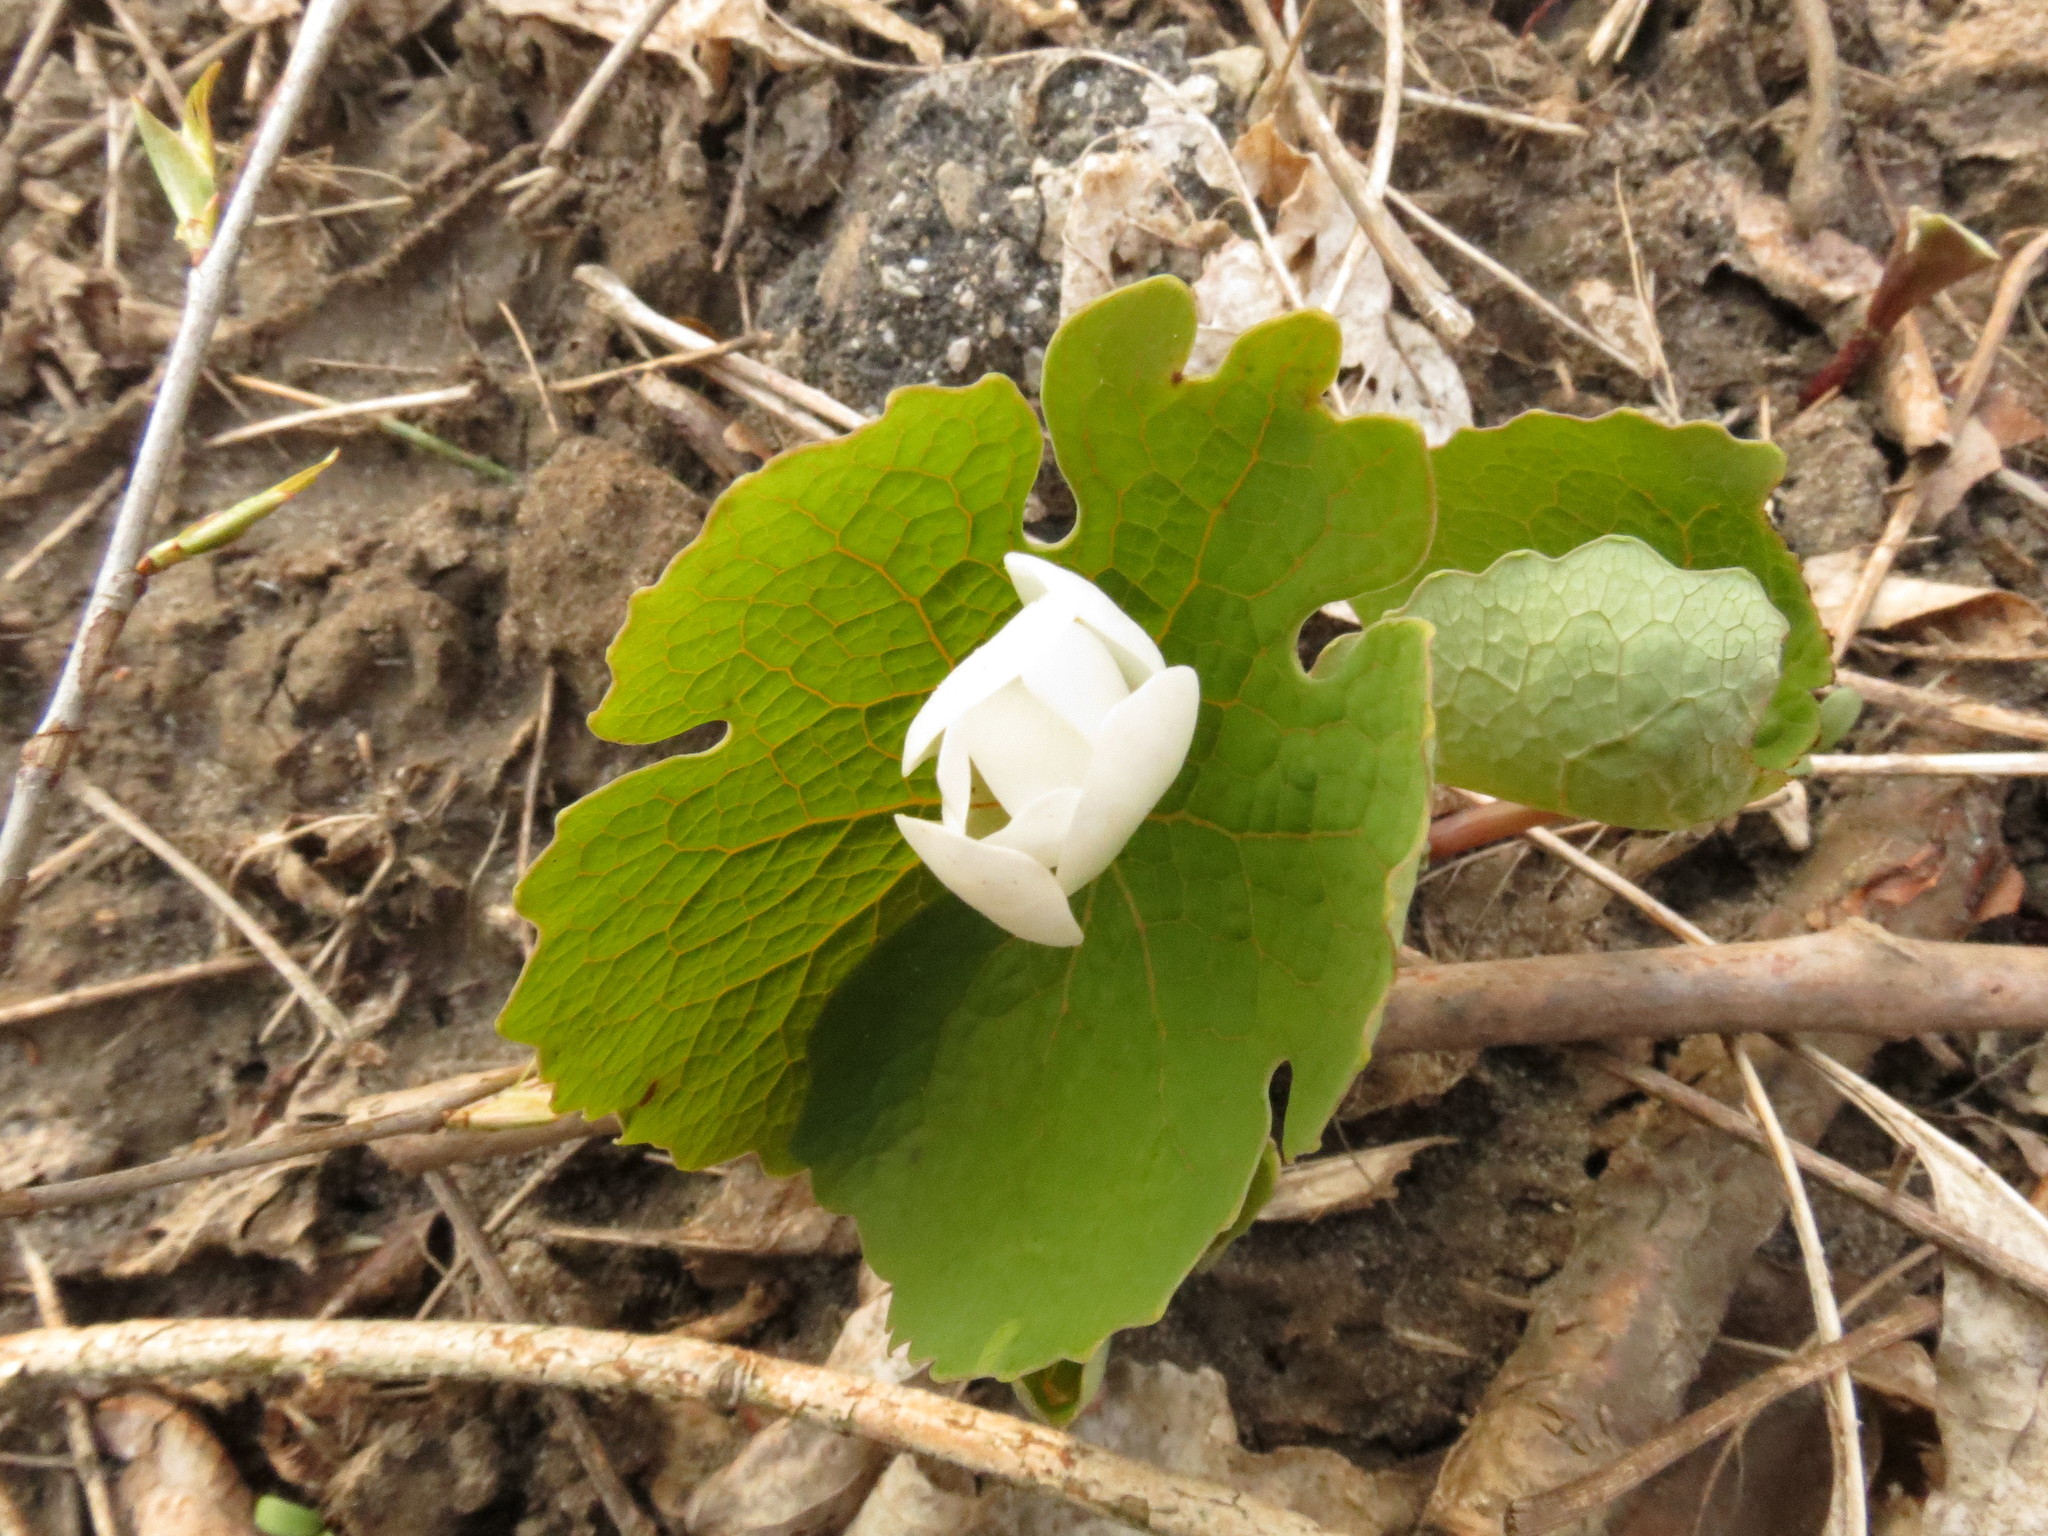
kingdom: Plantae
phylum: Tracheophyta
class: Magnoliopsida
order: Ranunculales
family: Papaveraceae
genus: Sanguinaria
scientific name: Sanguinaria canadensis
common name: Bloodroot
